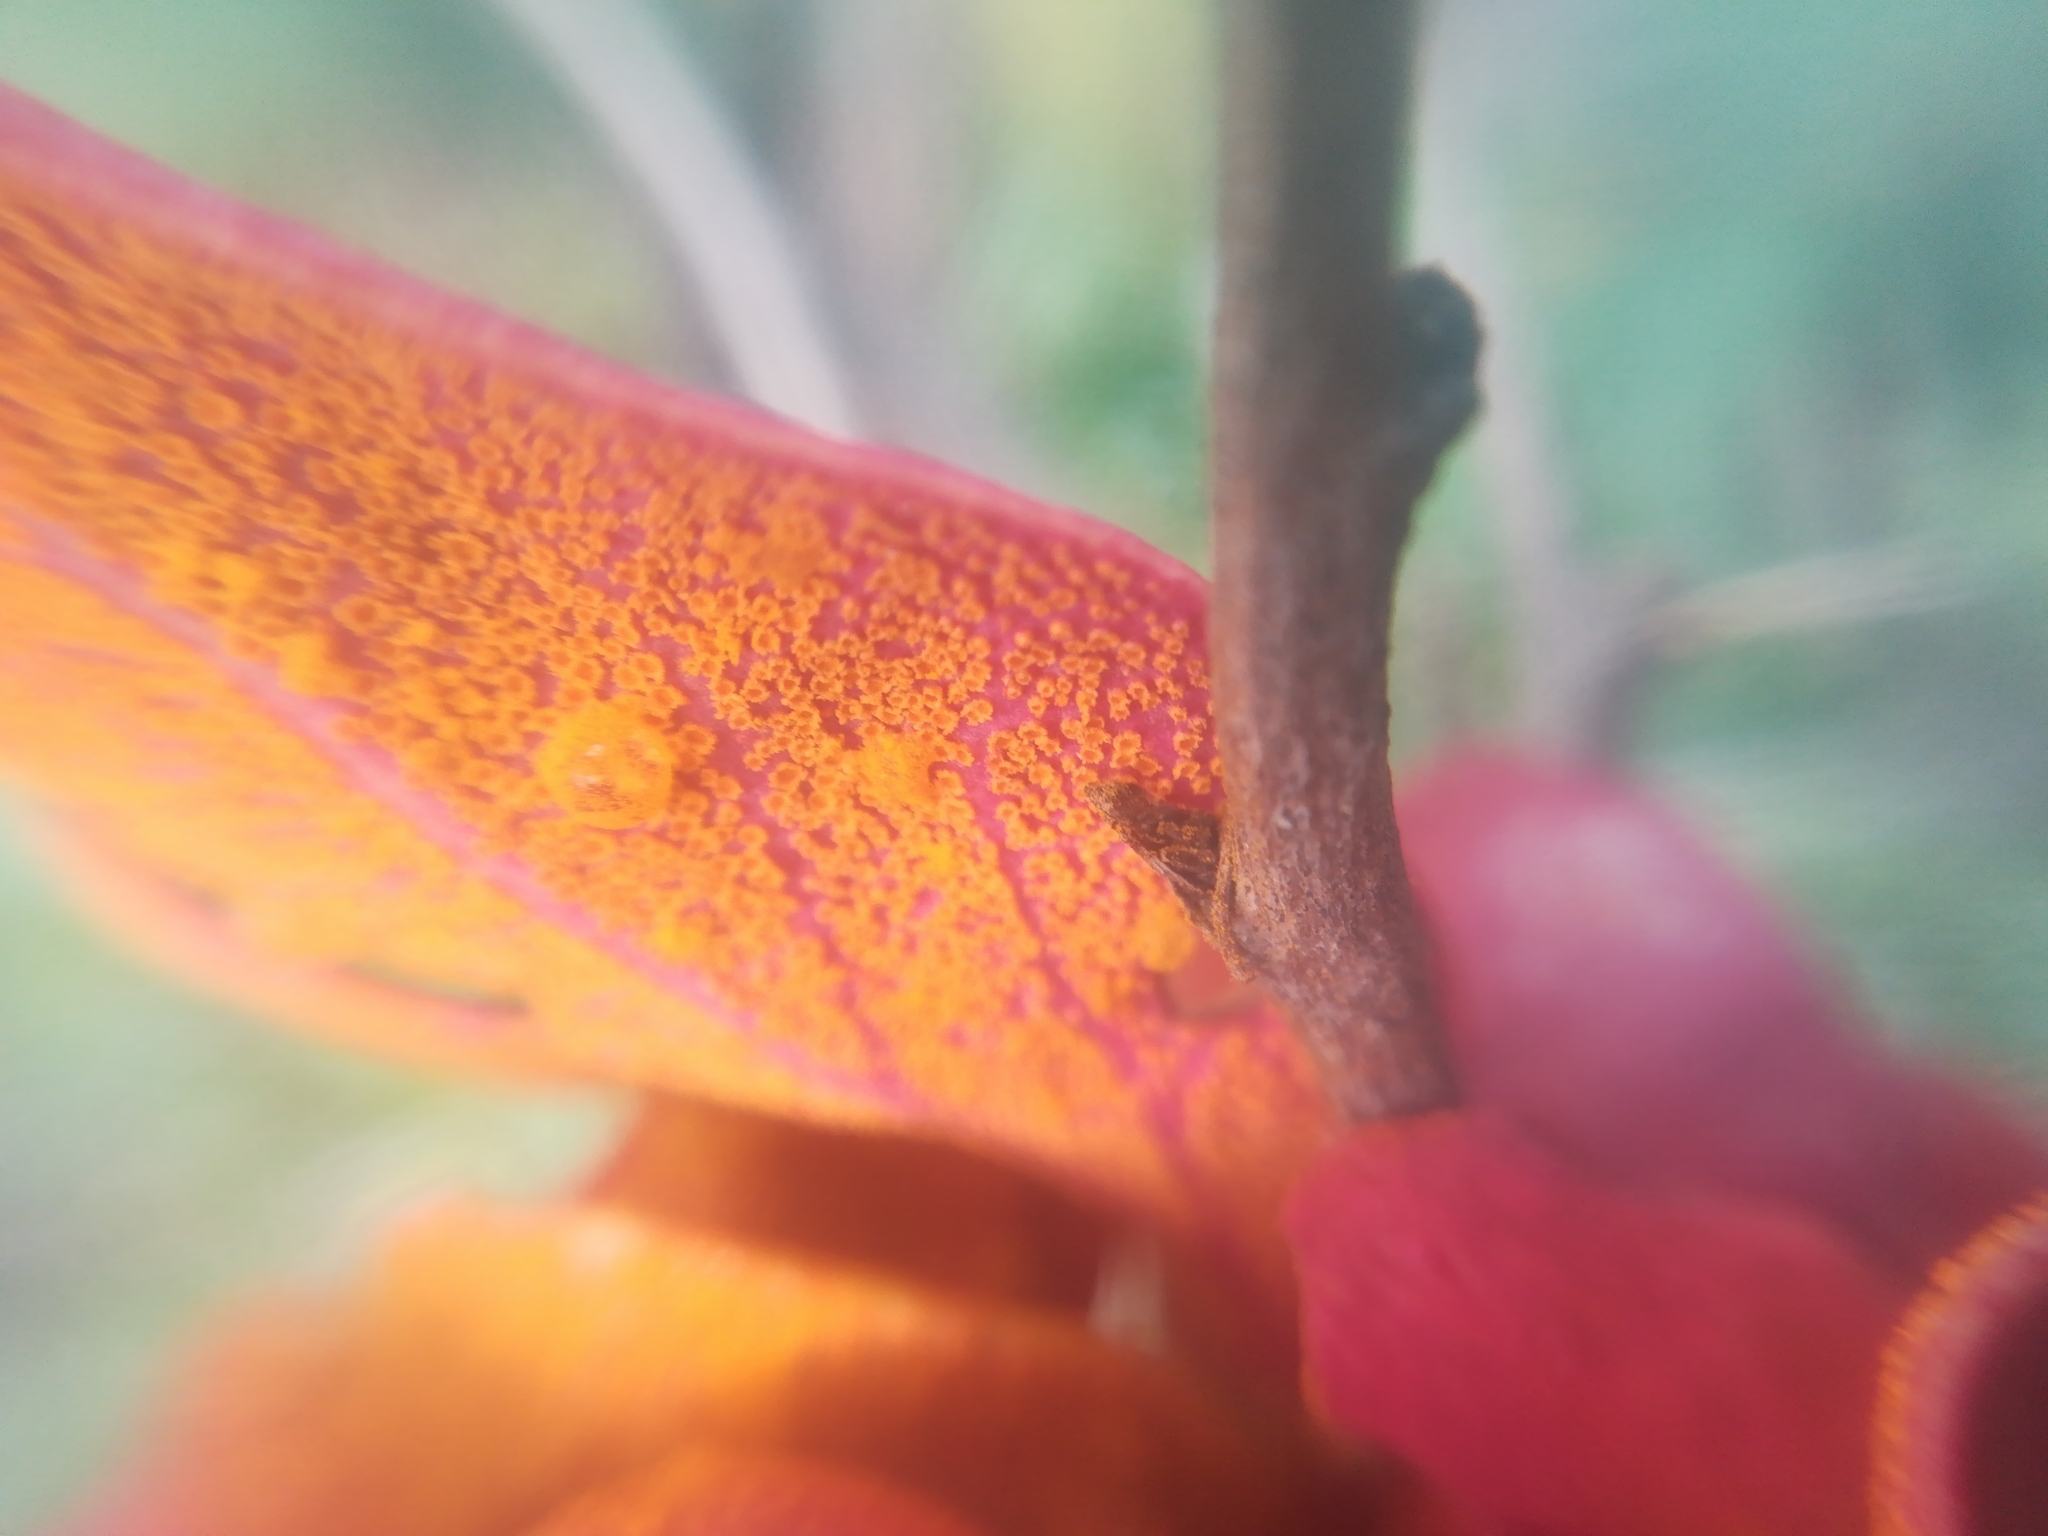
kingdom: Fungi
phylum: Basidiomycota
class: Pucciniomycetes
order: Pucciniales
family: Pucciniaceae
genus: Puccinia
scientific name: Puccinia magellanica
